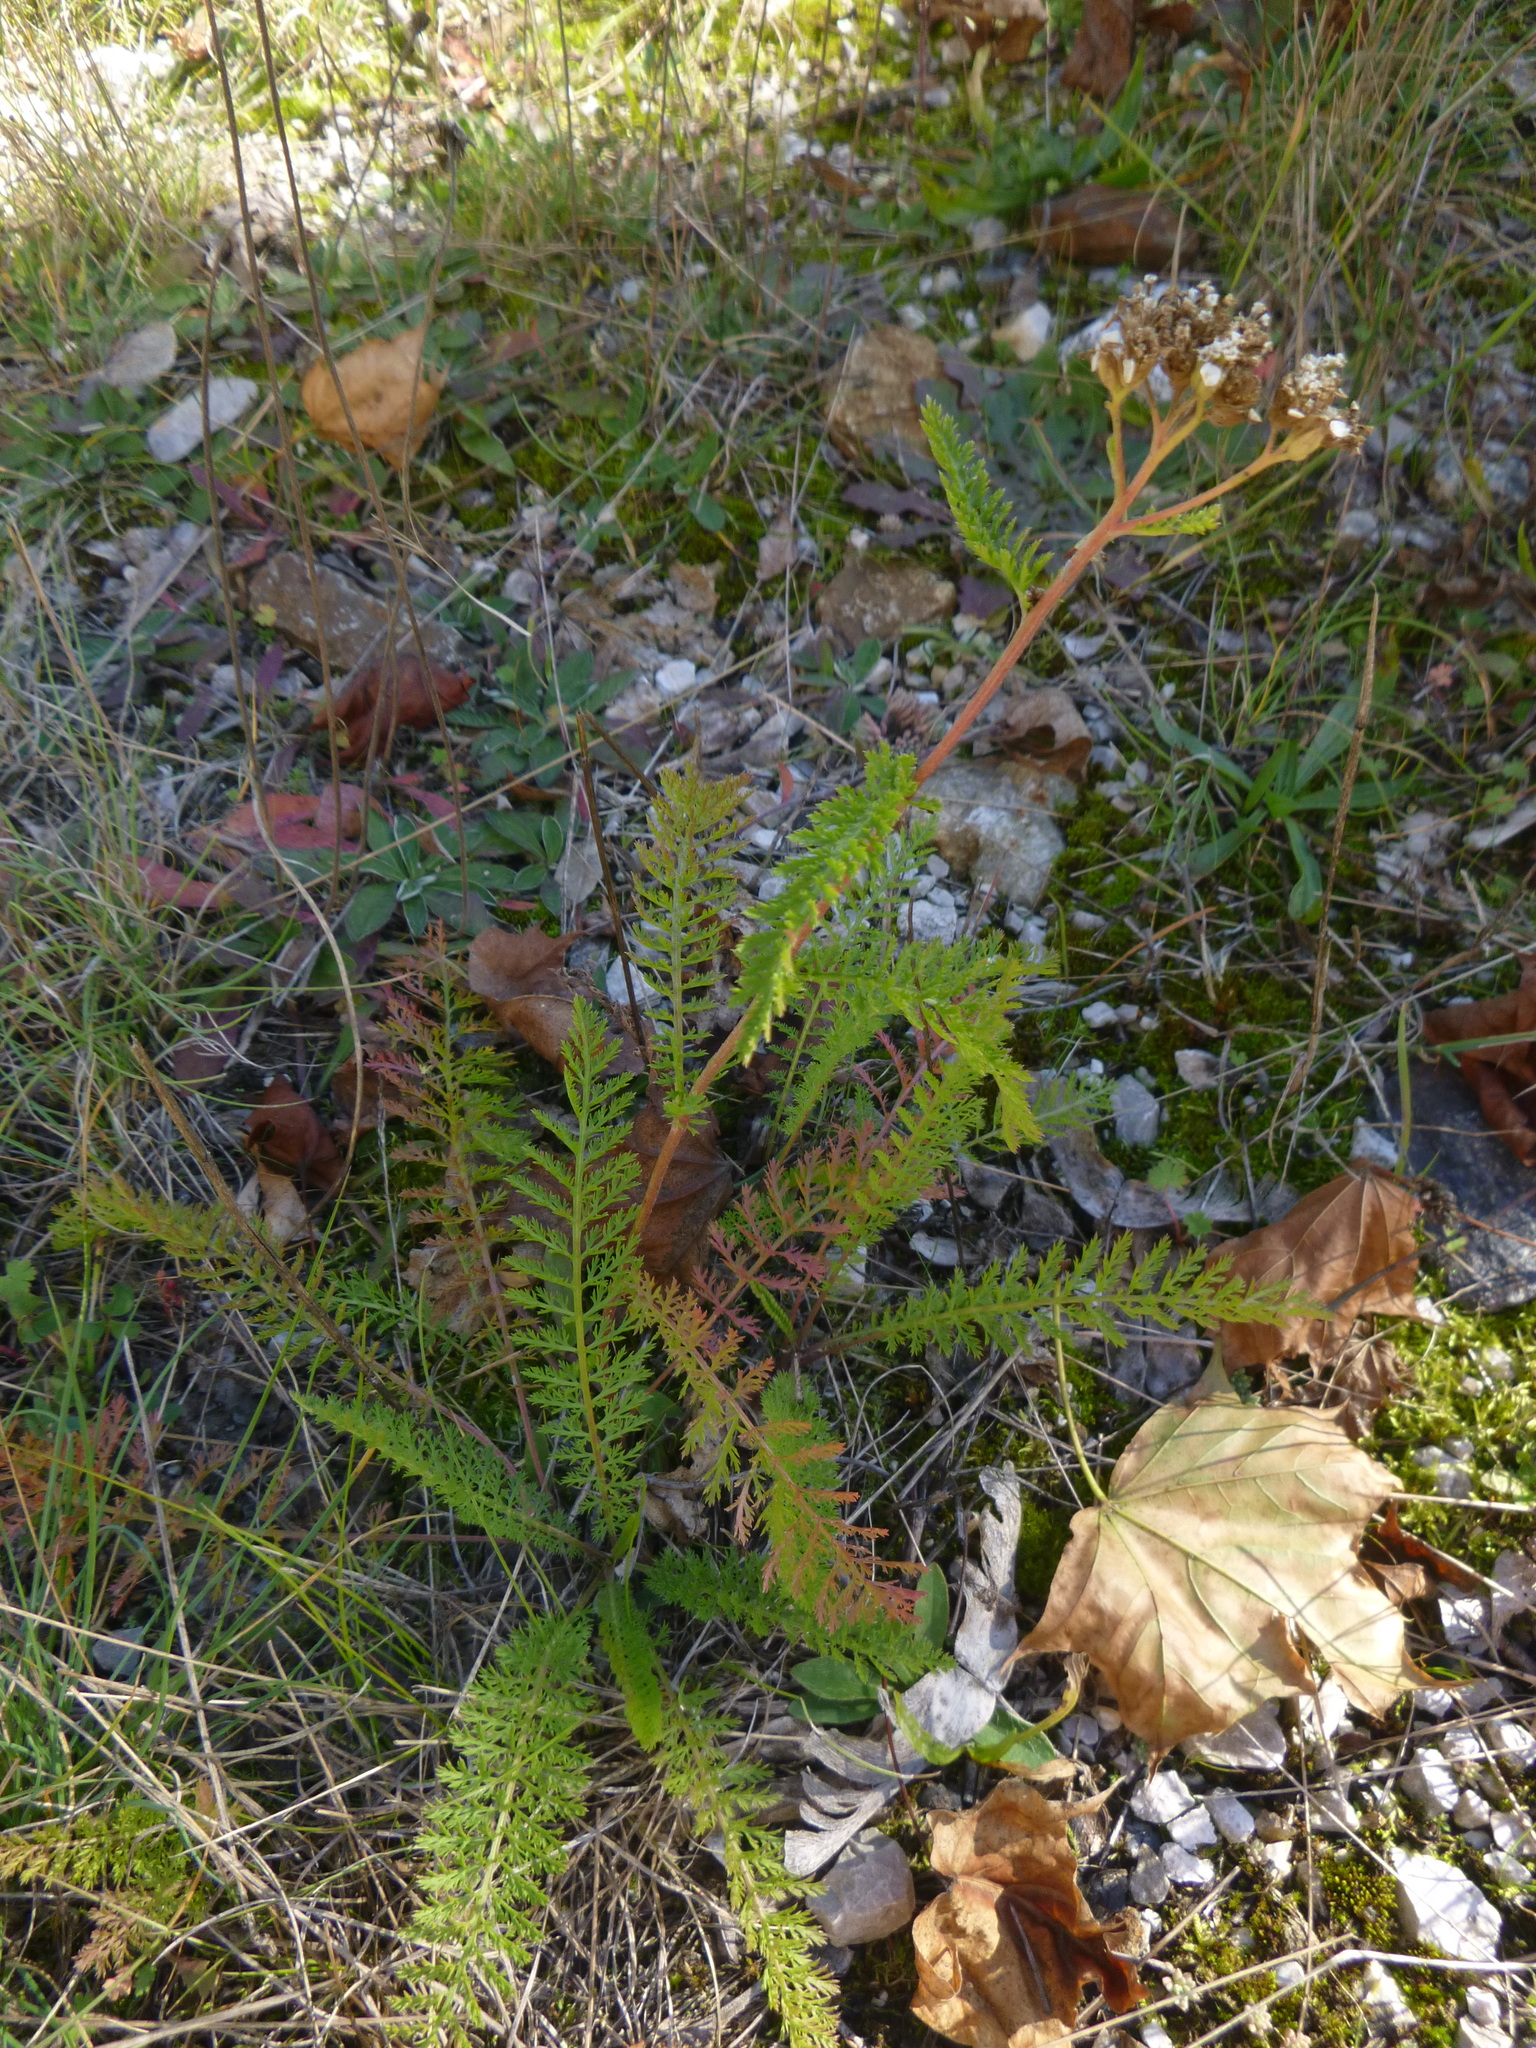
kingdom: Plantae
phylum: Tracheophyta
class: Magnoliopsida
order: Asterales
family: Asteraceae
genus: Achillea
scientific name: Achillea millefolium
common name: Yarrow
